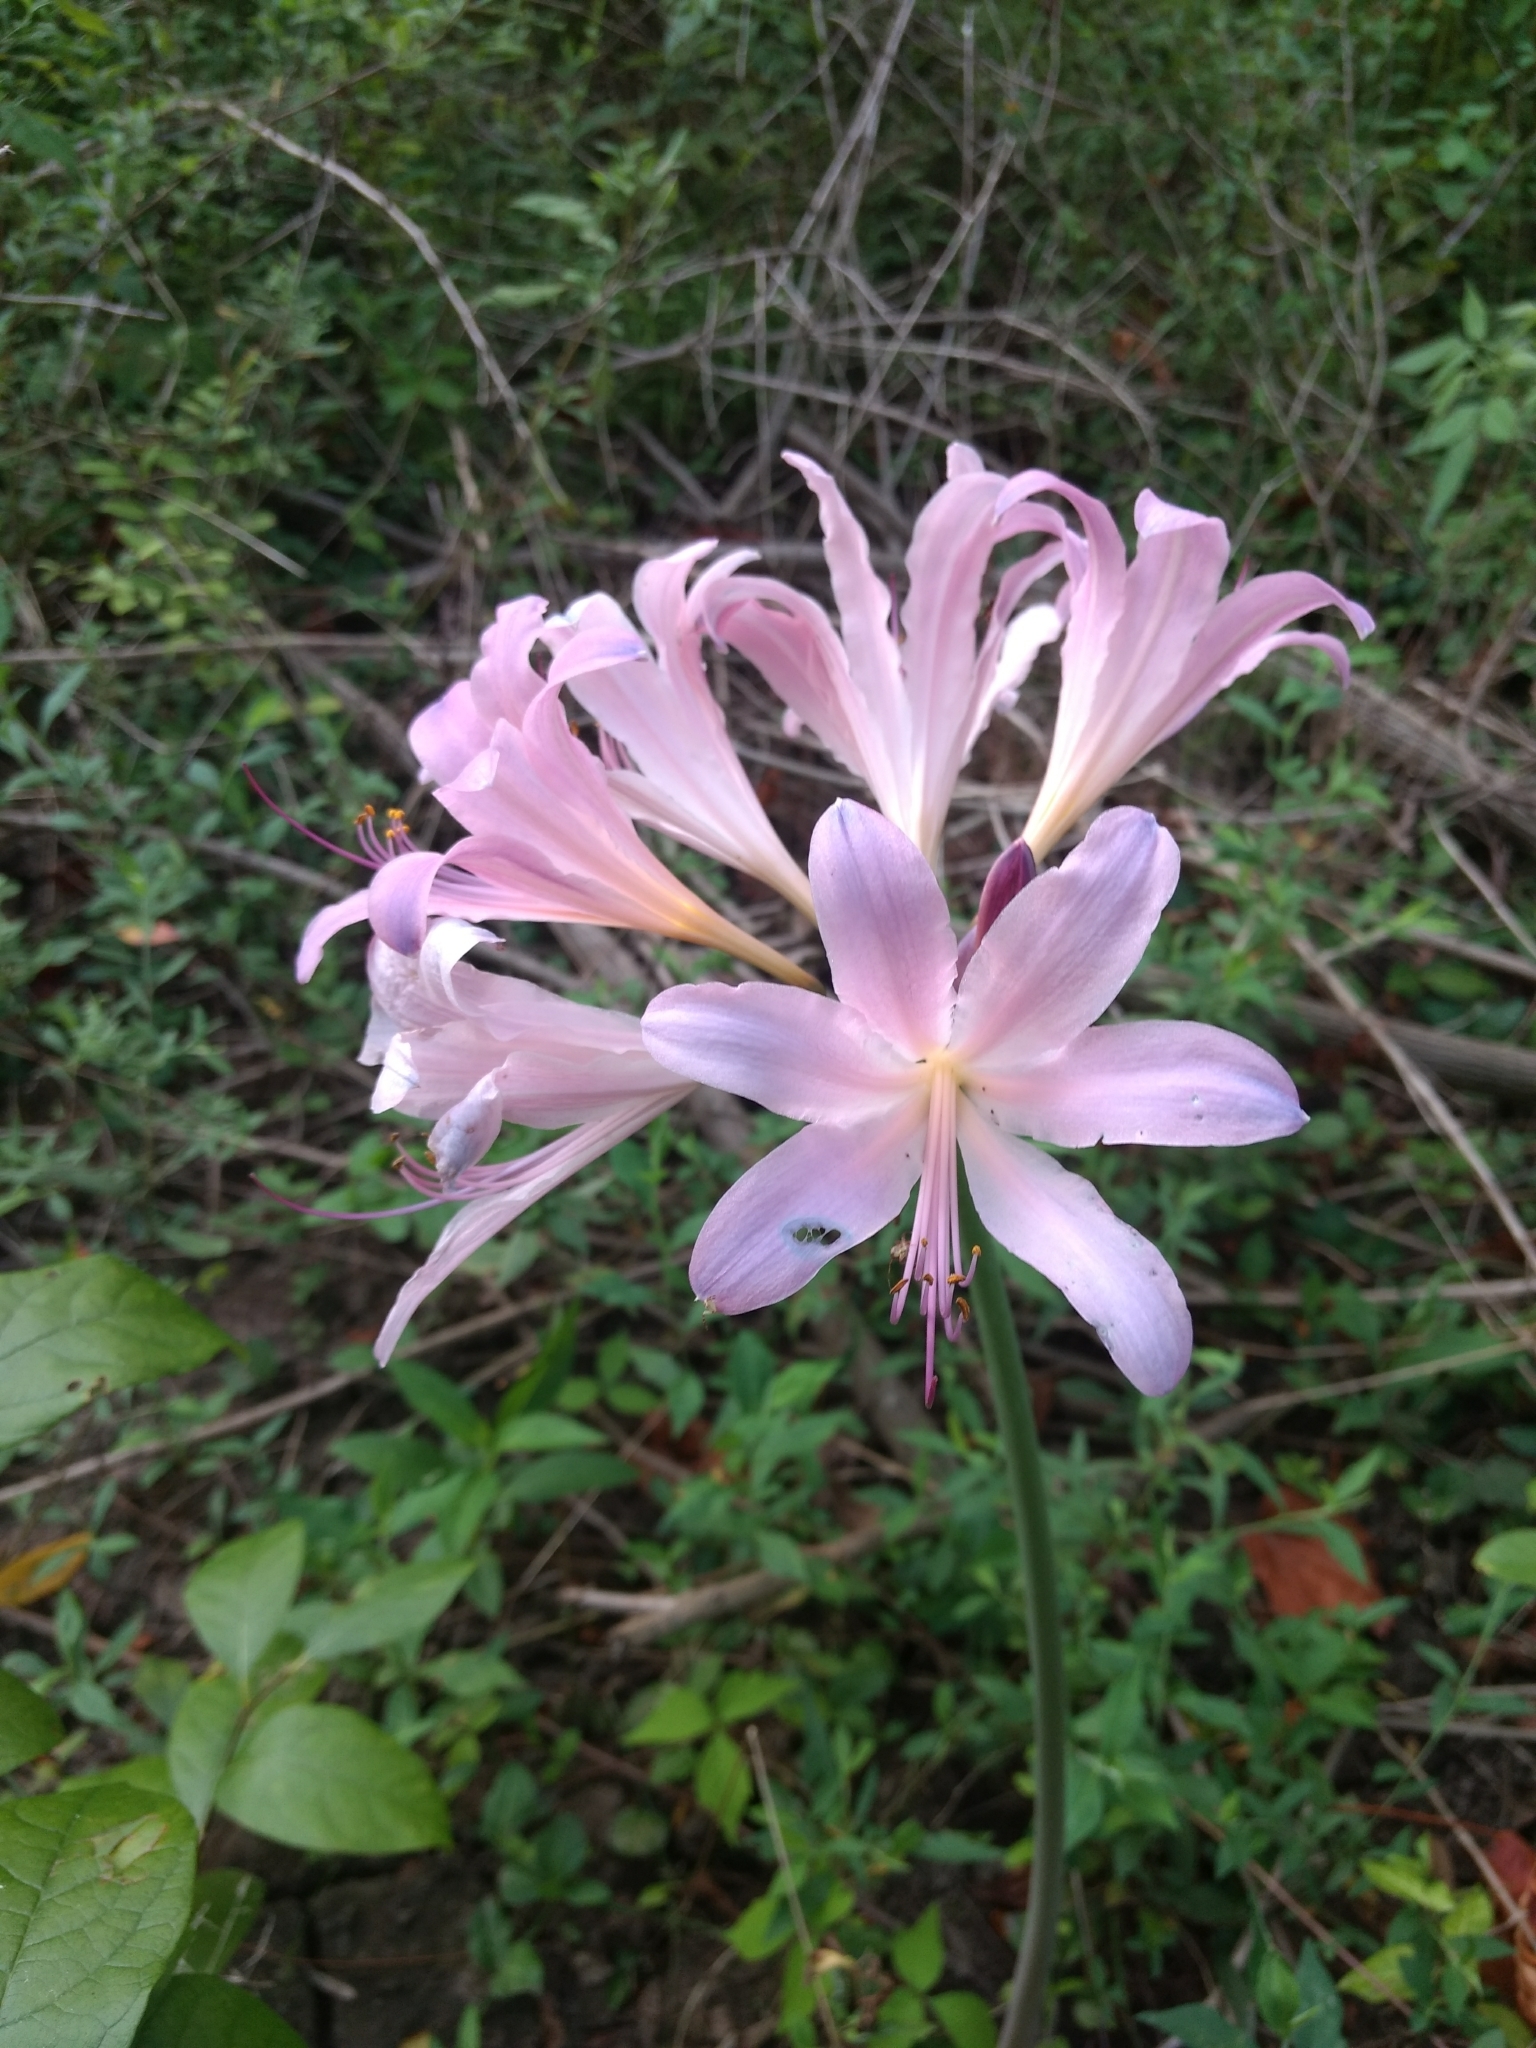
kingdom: Plantae
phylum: Tracheophyta
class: Liliopsida
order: Asparagales
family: Amaryllidaceae
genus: Lycoris
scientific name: Lycoris squamigera
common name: Magic-lily
